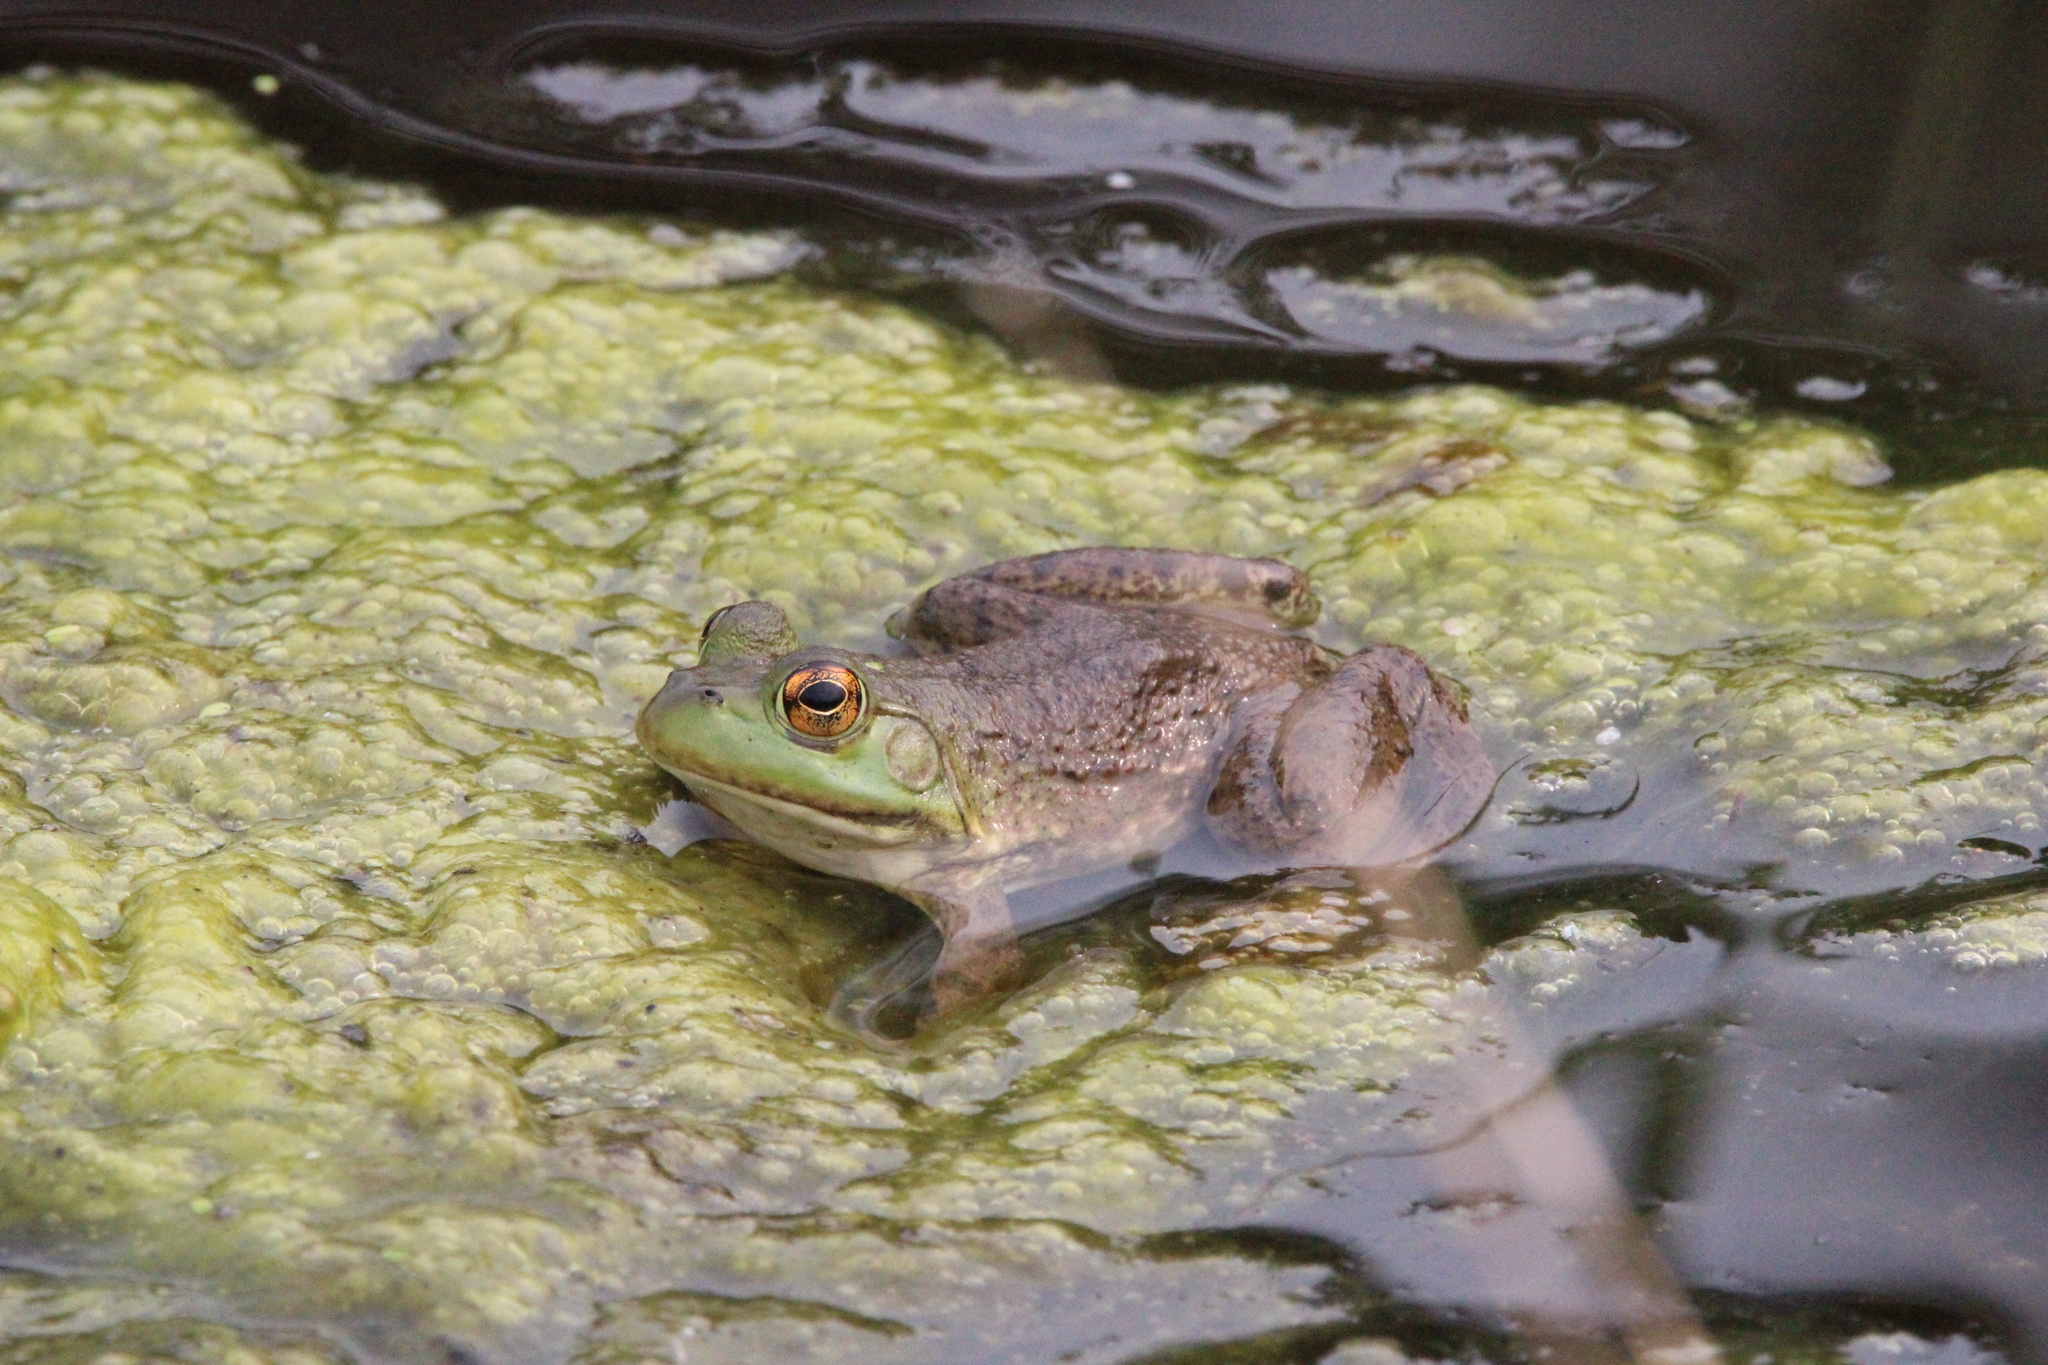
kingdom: Animalia
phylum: Chordata
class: Amphibia
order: Anura
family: Ranidae
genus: Lithobates
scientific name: Lithobates catesbeianus
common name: American bullfrog
